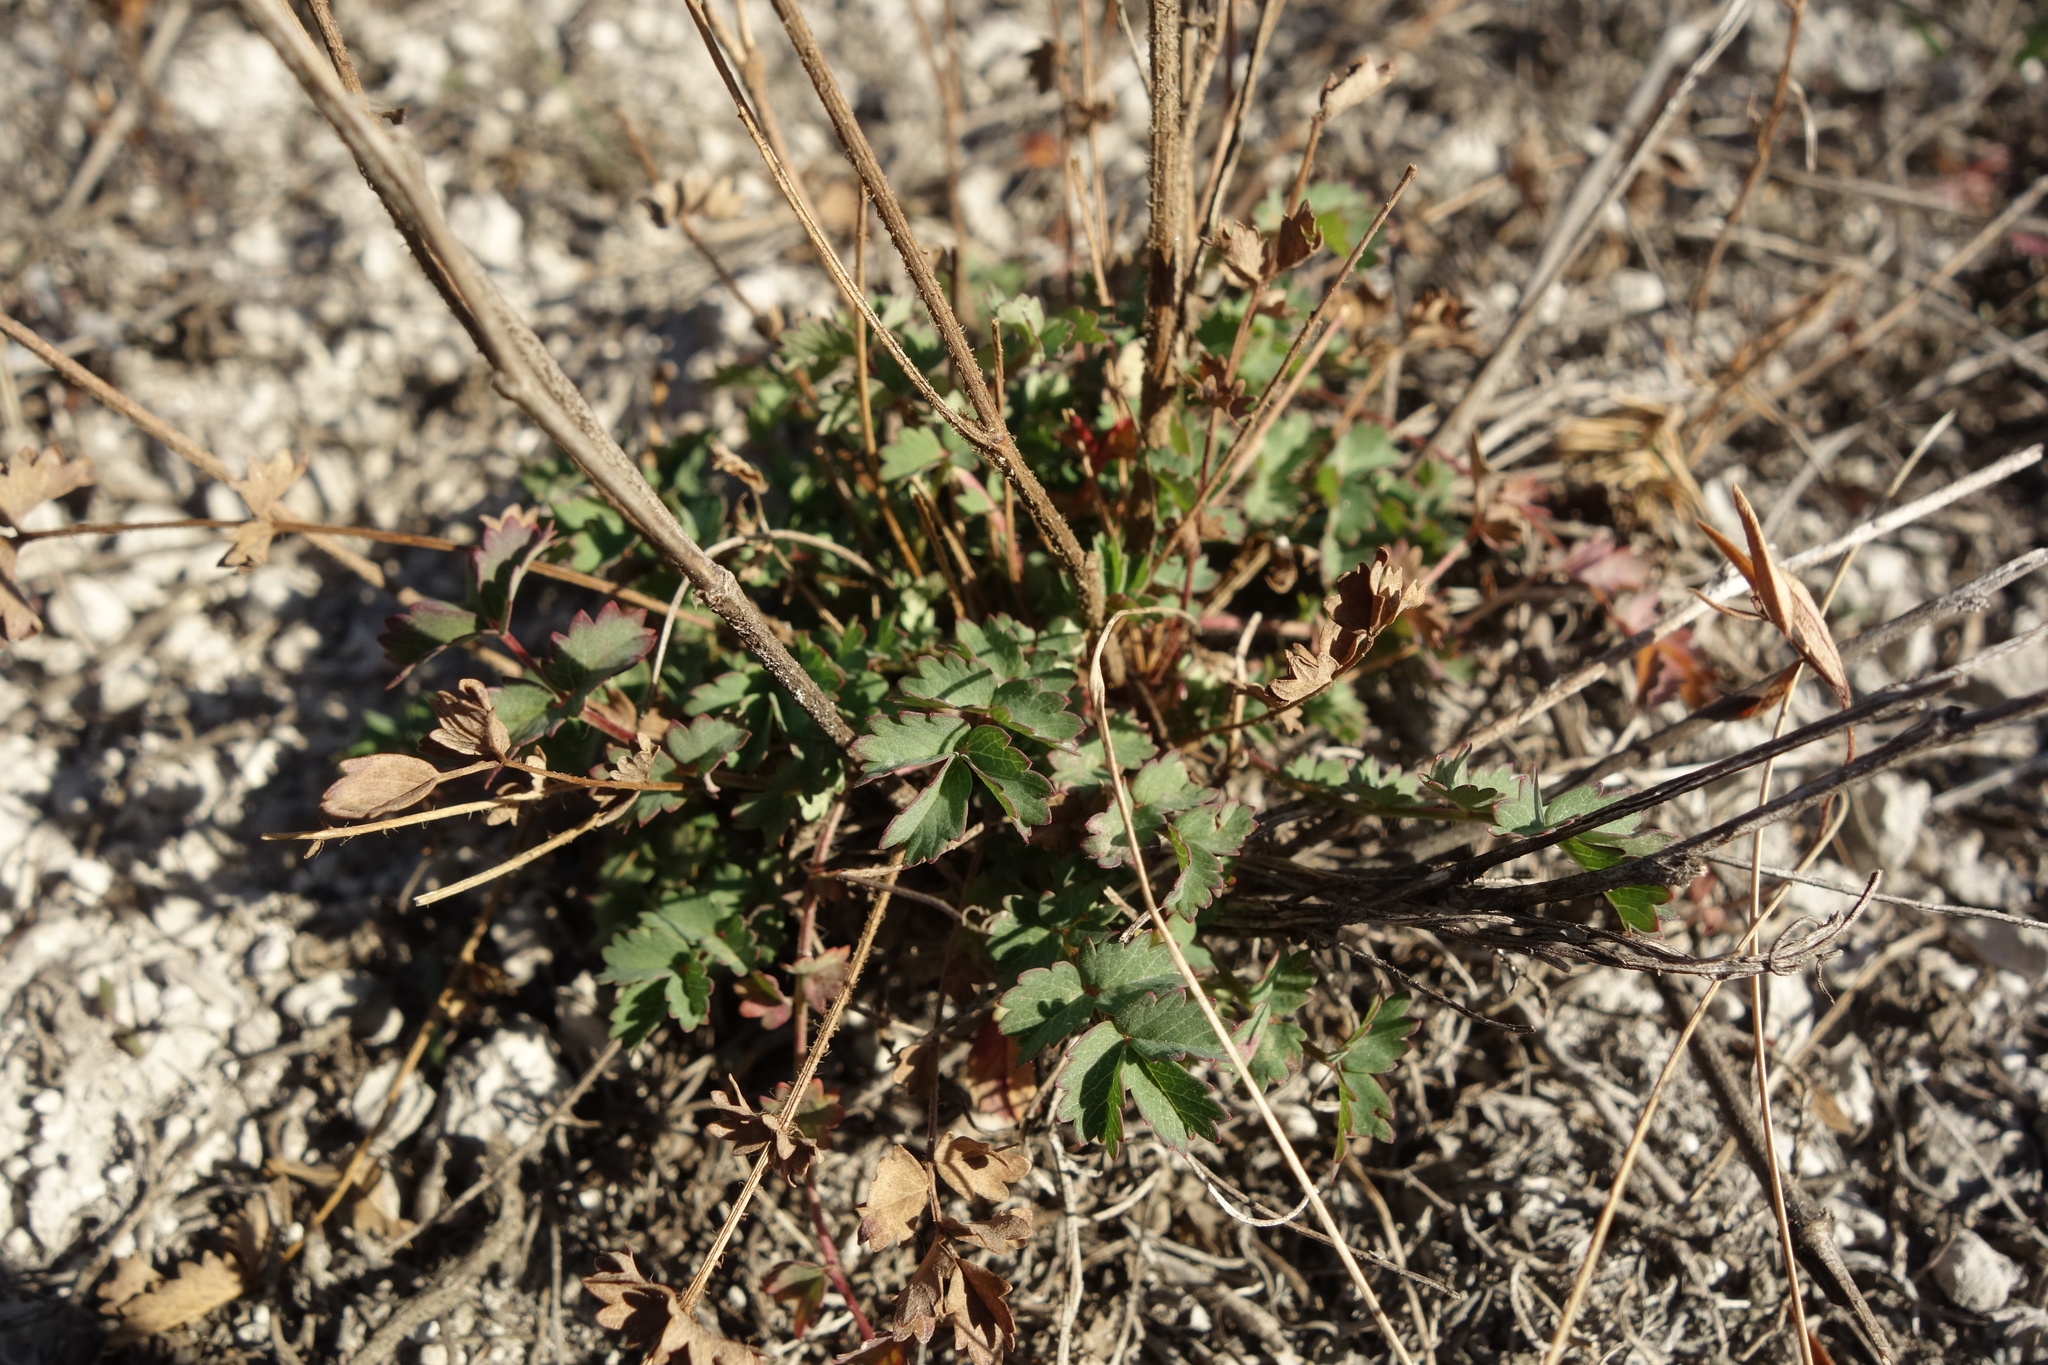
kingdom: Plantae
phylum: Tracheophyta
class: Magnoliopsida
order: Rosales
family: Rosaceae
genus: Poterium
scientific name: Poterium sanguisorba
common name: Salad burnet
